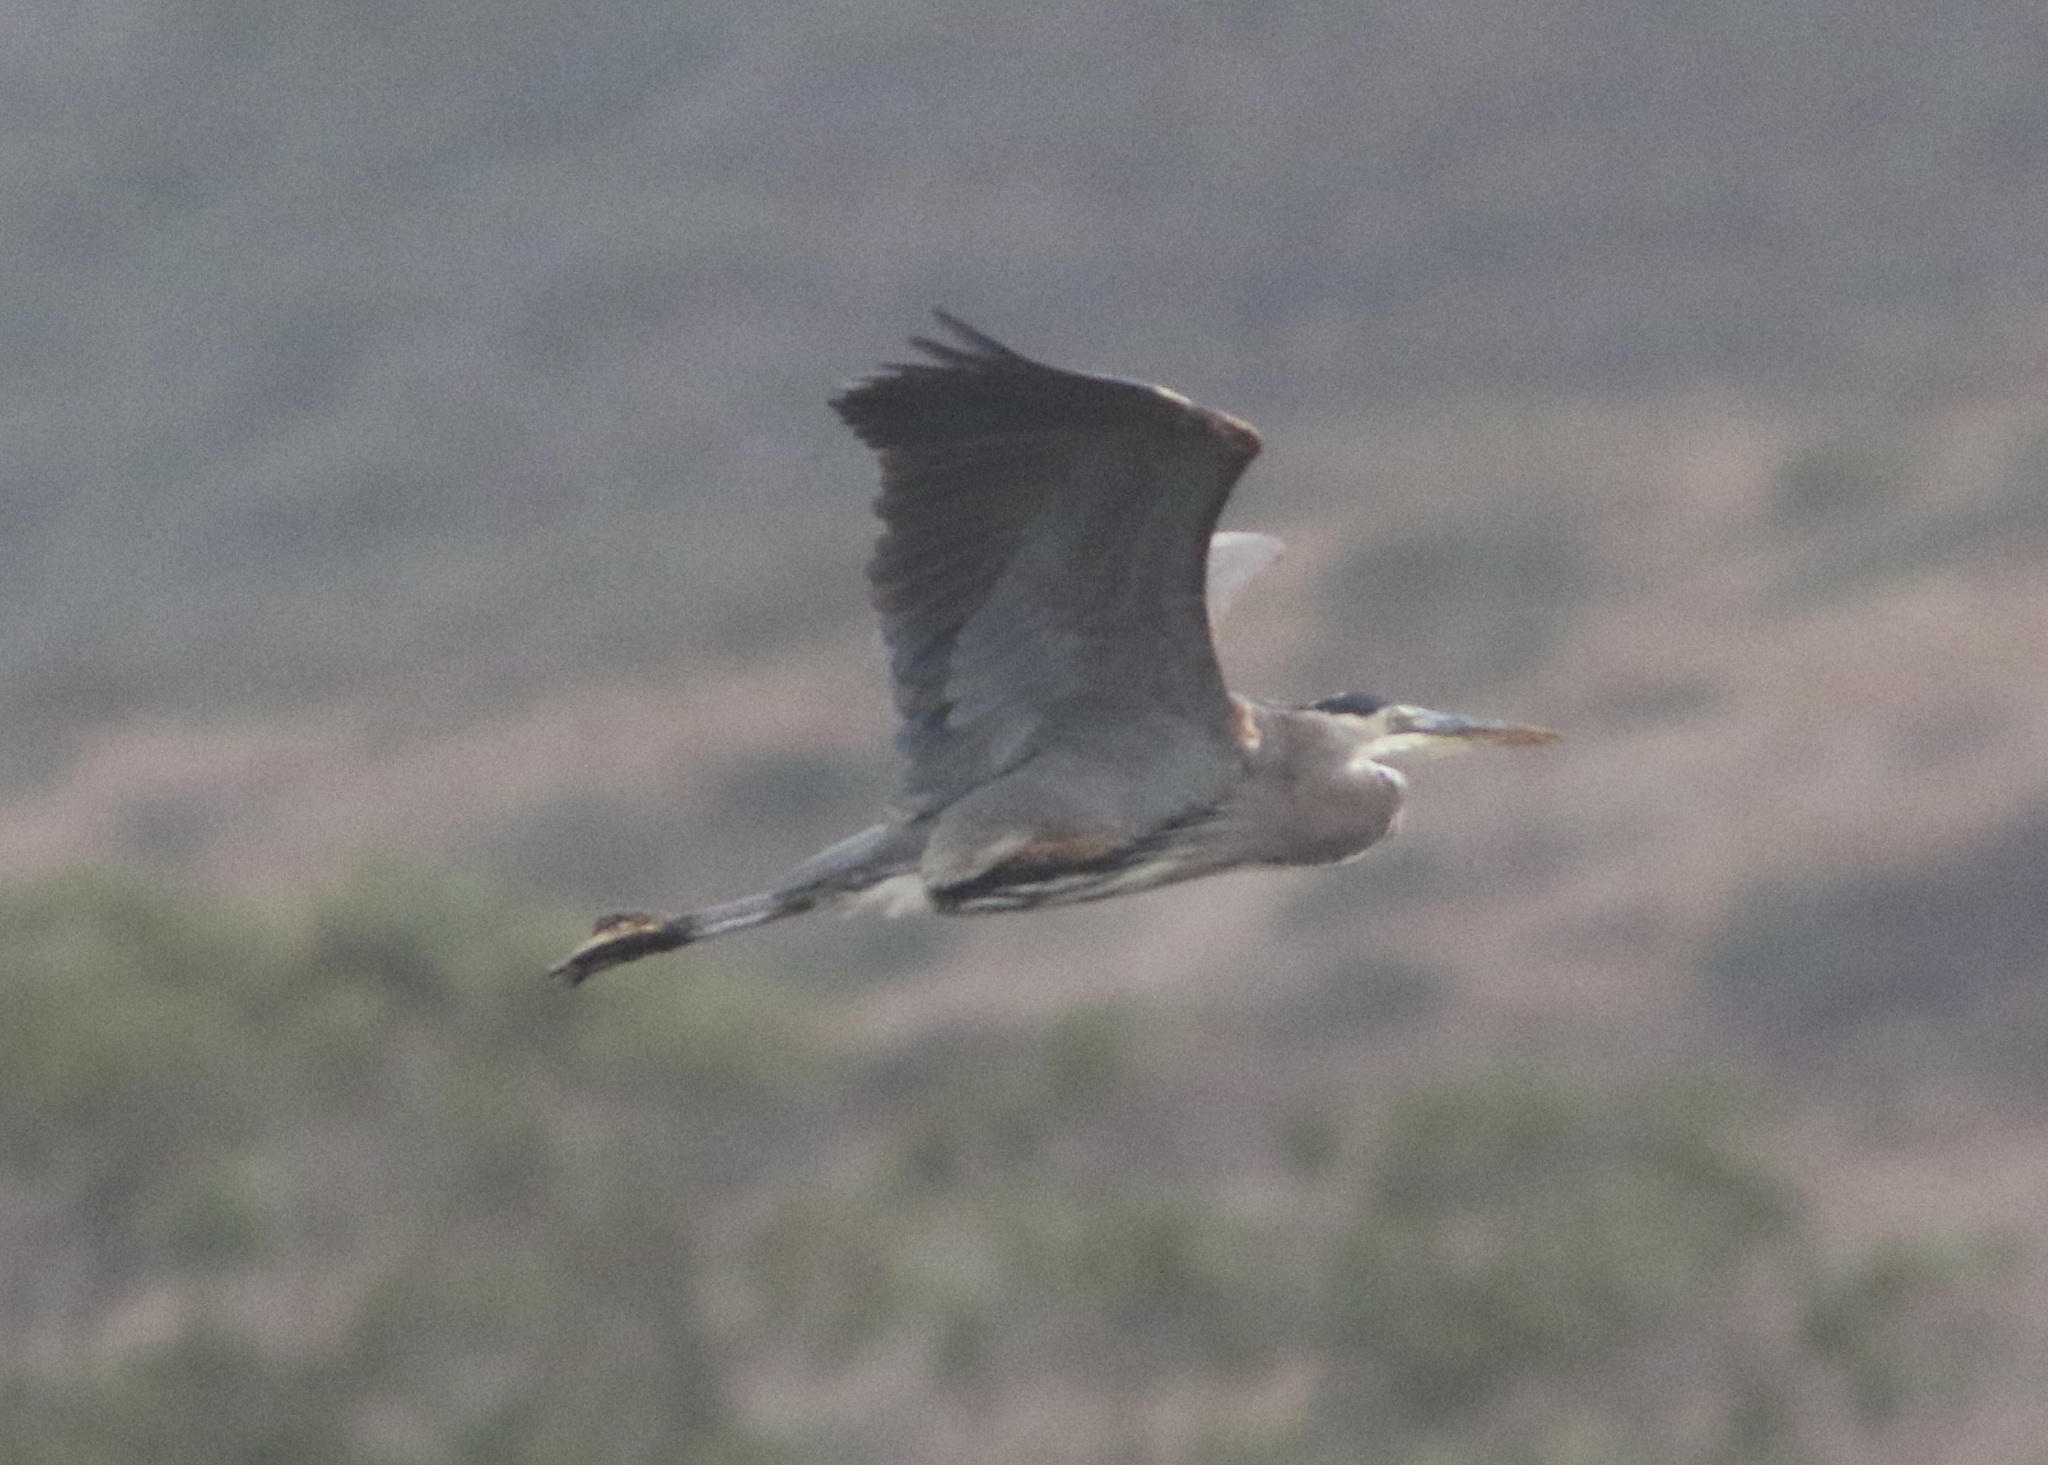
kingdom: Animalia
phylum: Chordata
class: Aves
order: Pelecaniformes
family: Ardeidae
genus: Ardea
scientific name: Ardea herodias
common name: Great blue heron
